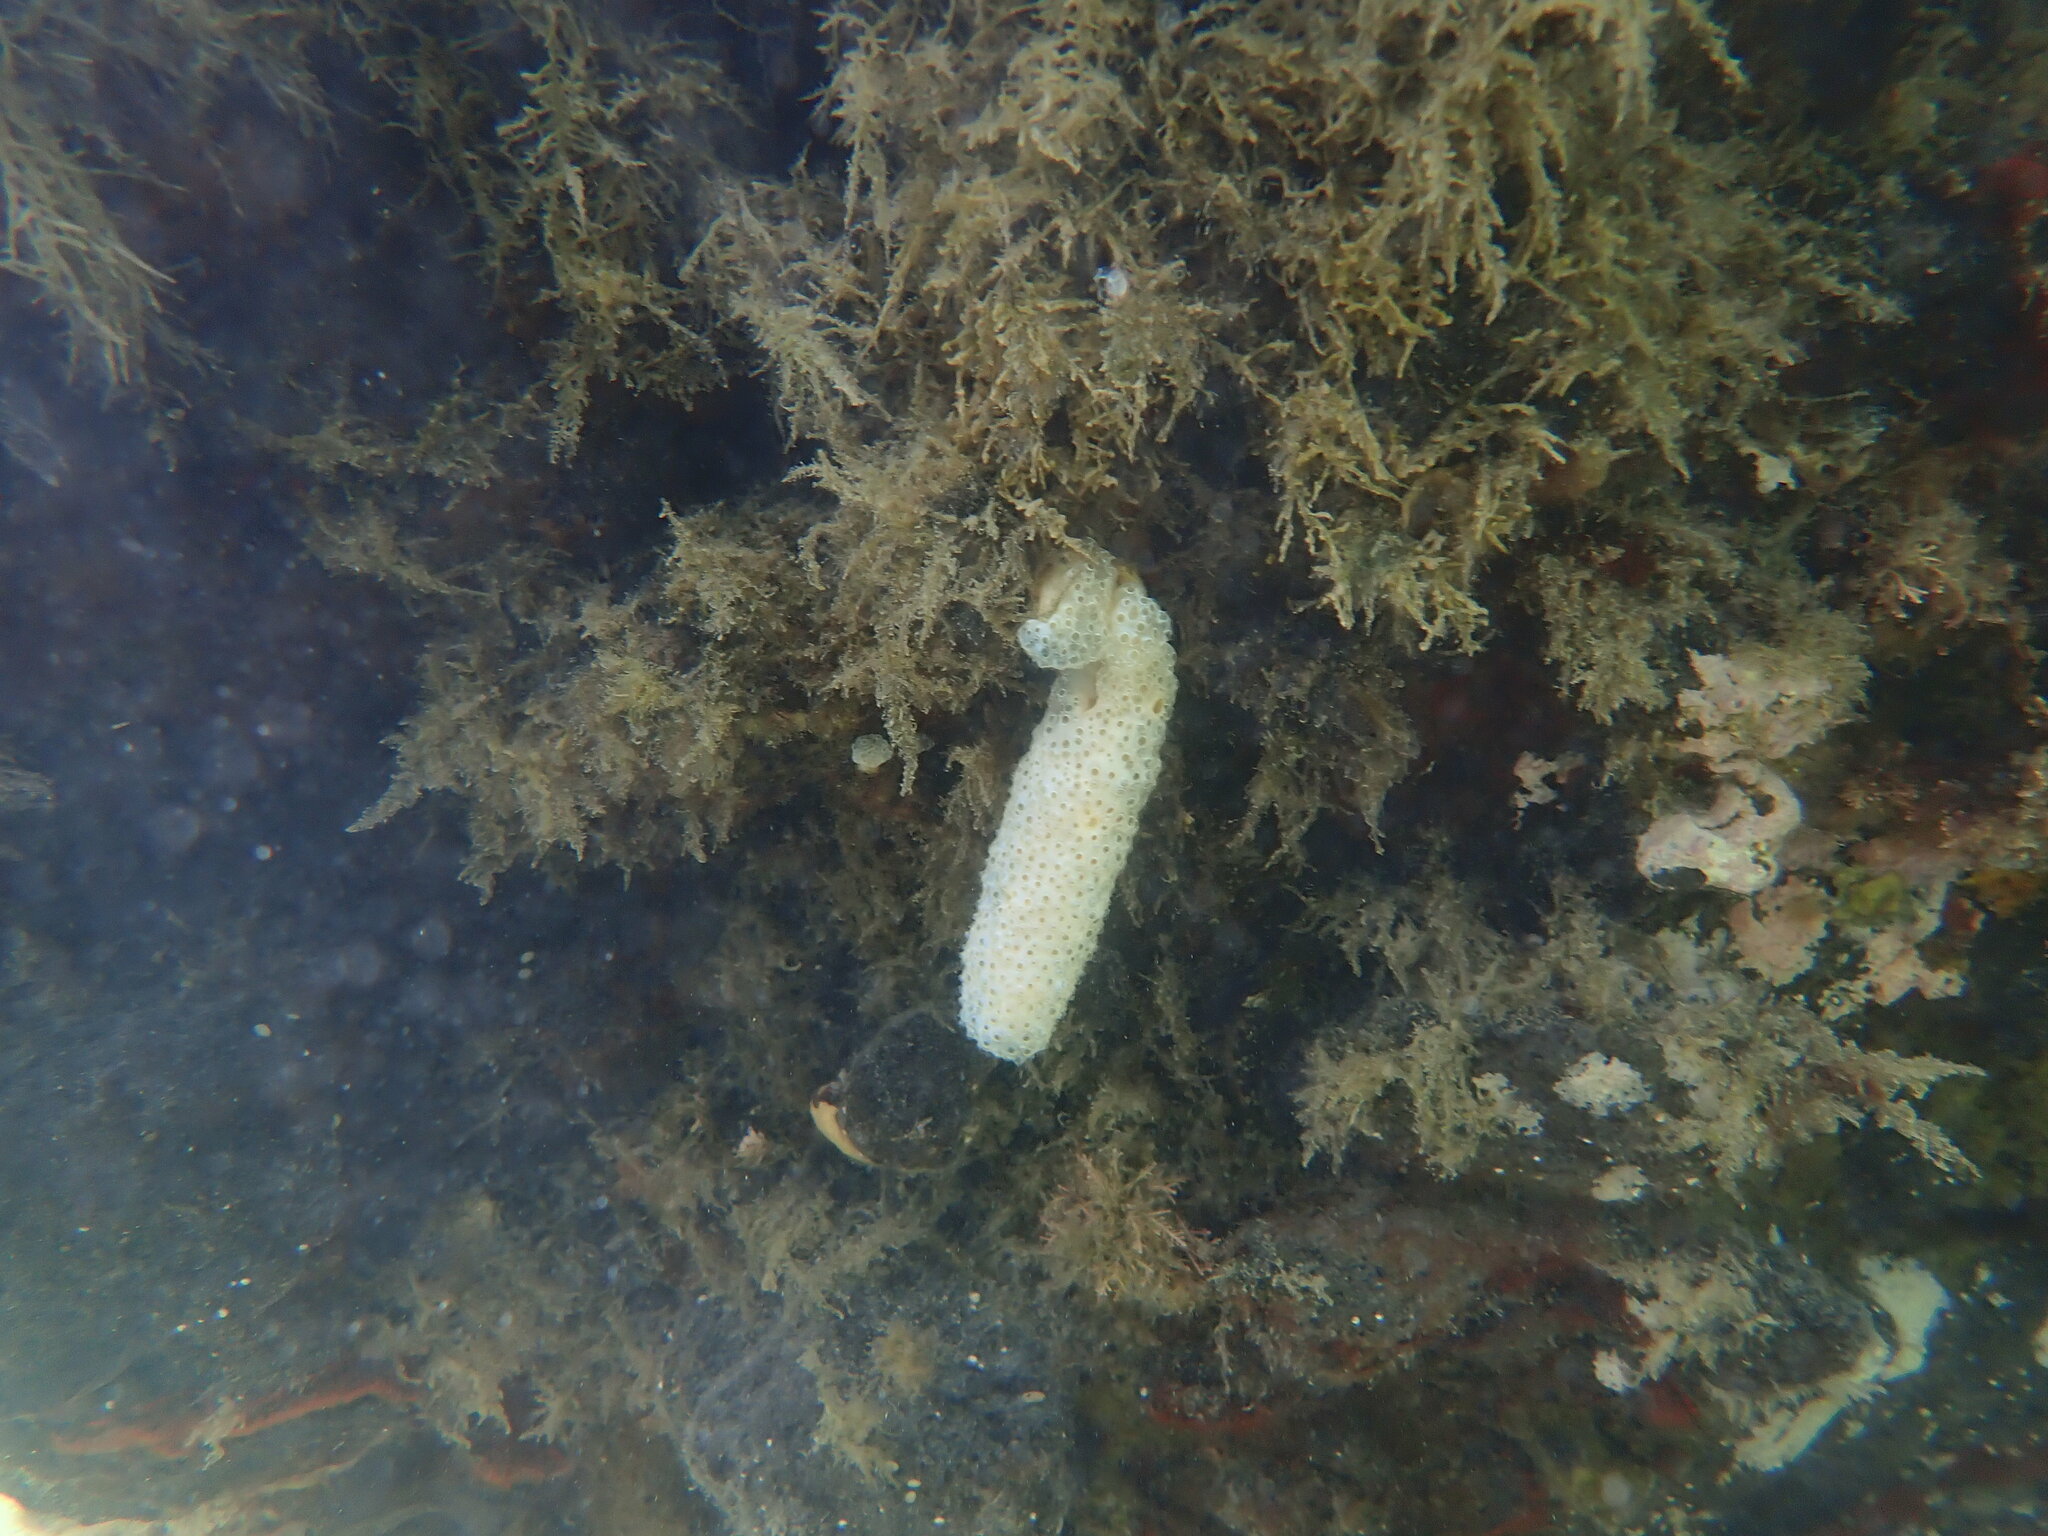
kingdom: Animalia
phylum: Chordata
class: Ascidiacea
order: Aplousobranchia
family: Polycitoridae
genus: Eudistoma
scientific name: Eudistoma elongatum
